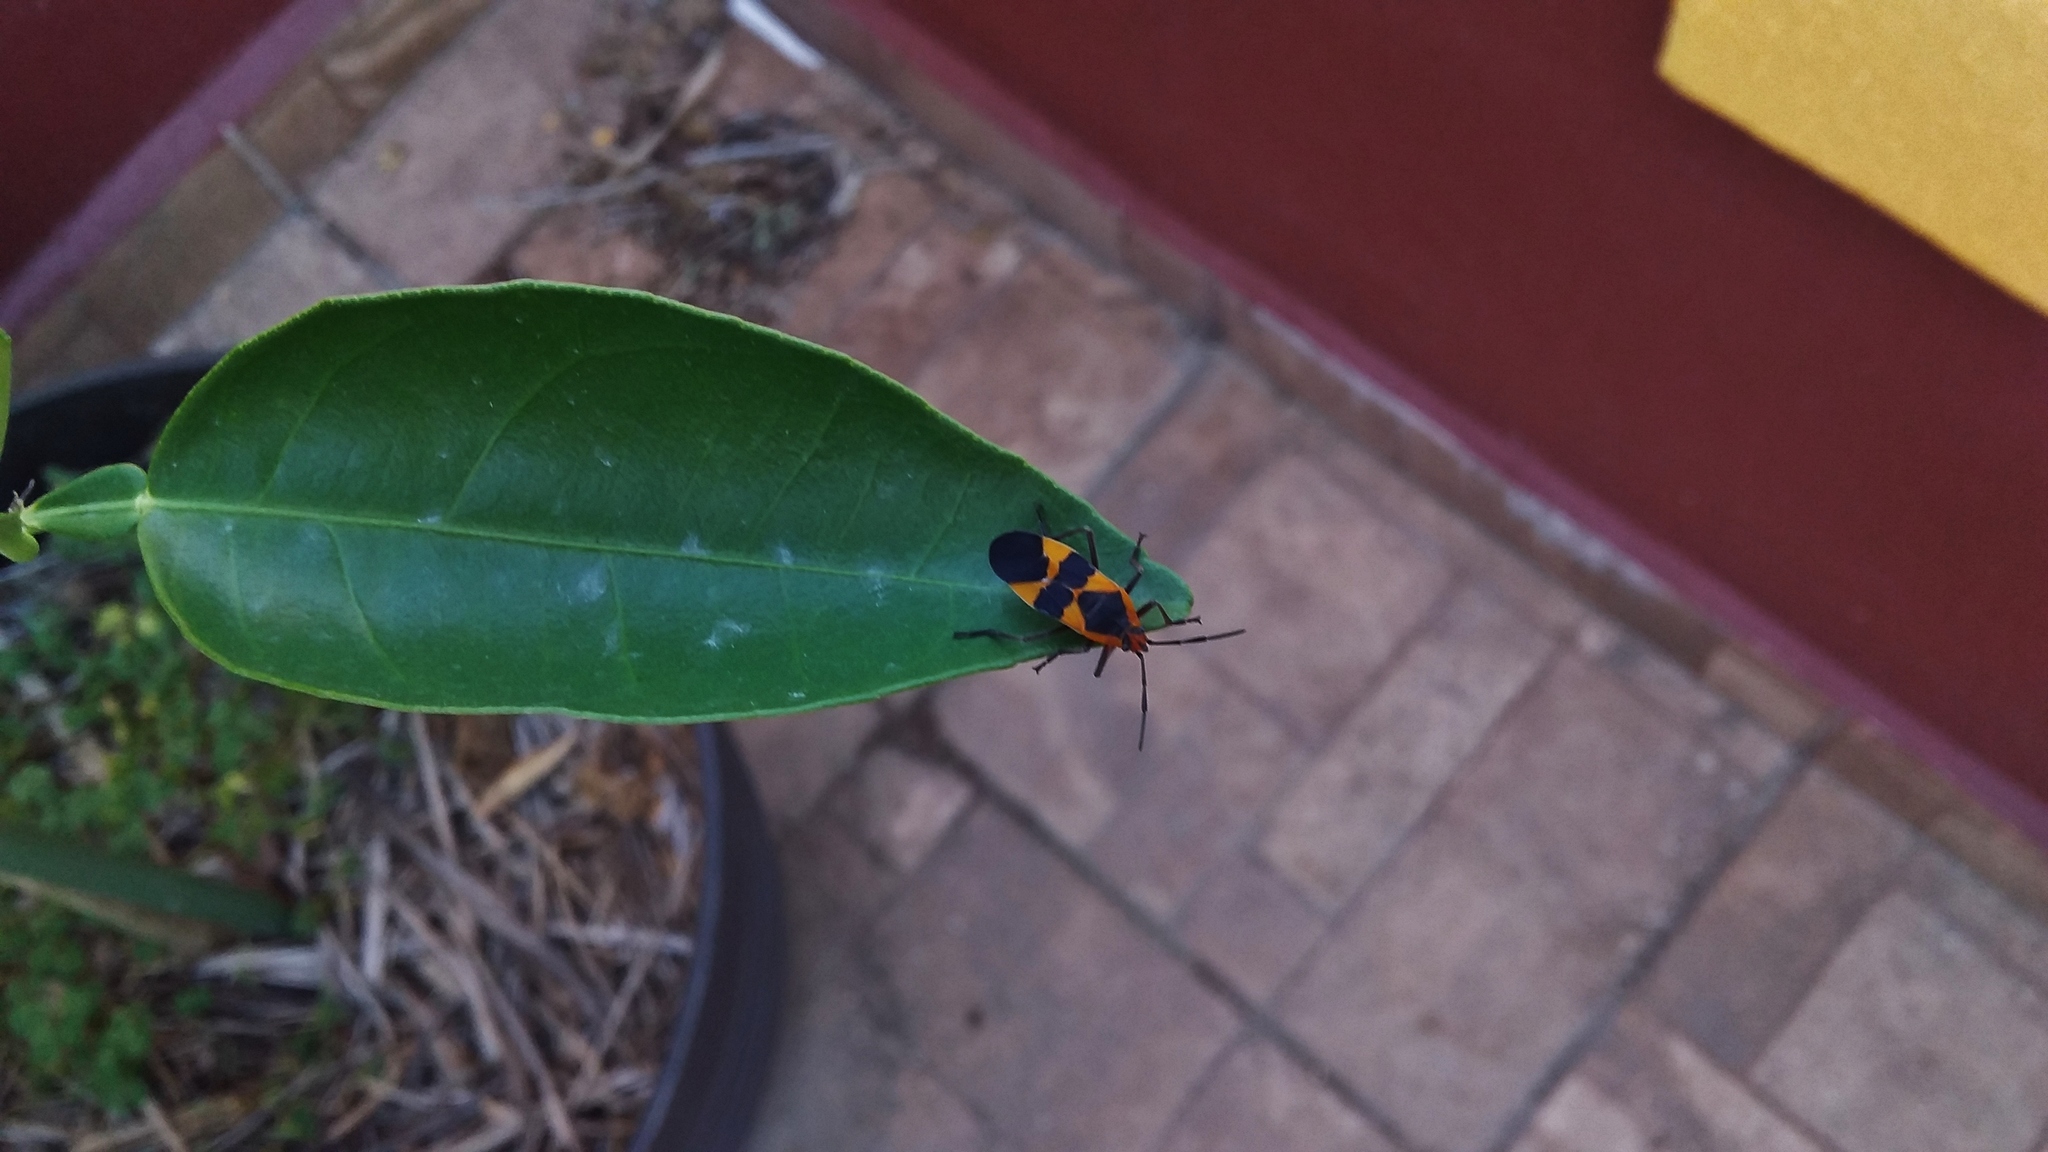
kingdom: Animalia
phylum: Arthropoda
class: Insecta
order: Hemiptera
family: Lygaeidae
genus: Oncopeltus
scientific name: Oncopeltus fasciatus
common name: Large milkweed bug
